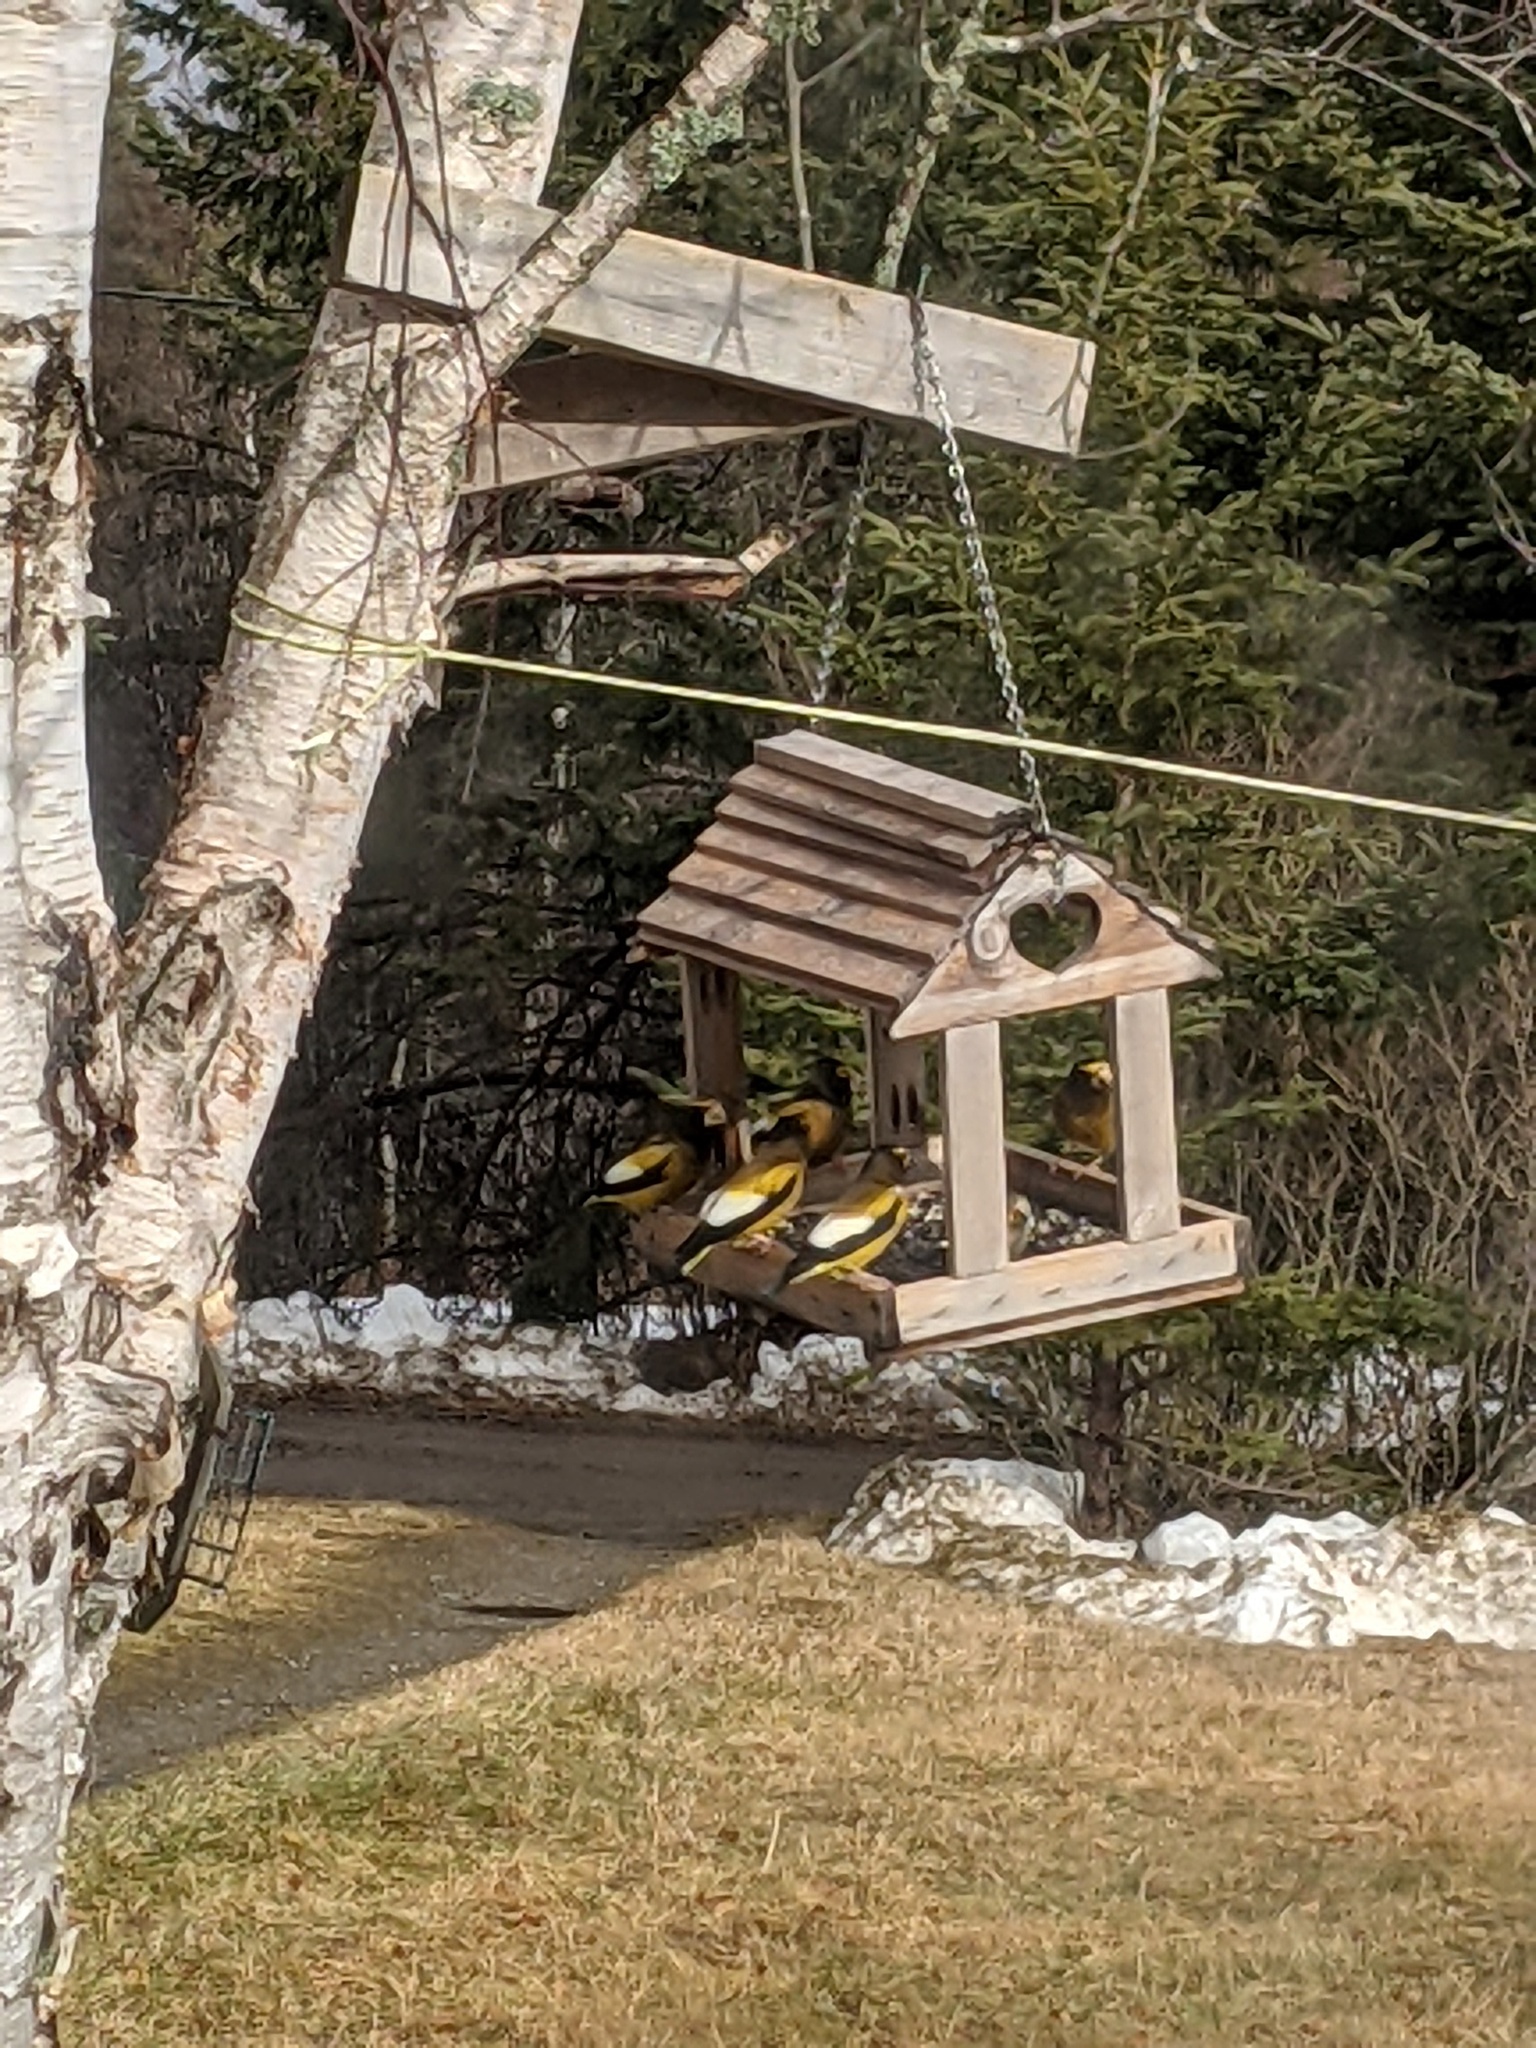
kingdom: Animalia
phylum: Chordata
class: Aves
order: Passeriformes
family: Fringillidae
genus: Hesperiphona
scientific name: Hesperiphona vespertina
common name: Evening grosbeak
